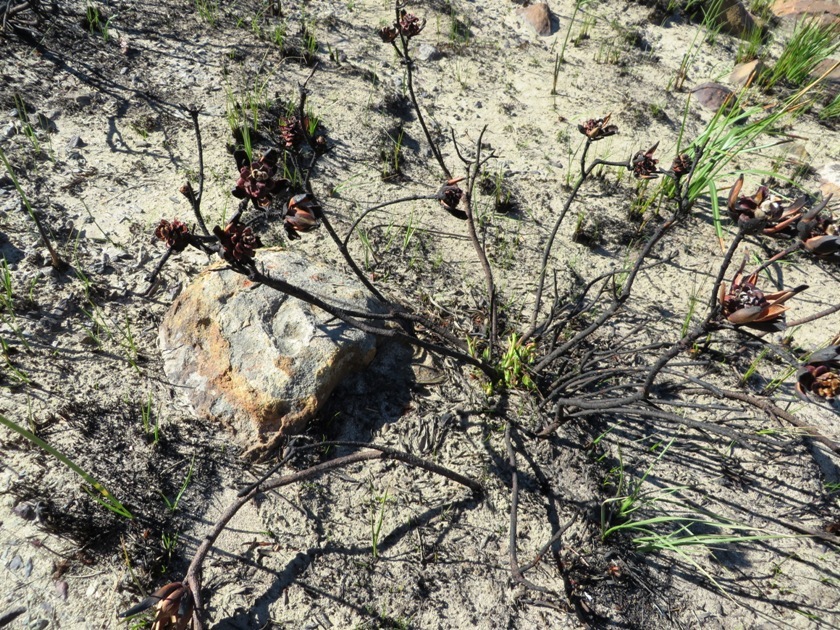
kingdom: Plantae
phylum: Tracheophyta
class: Magnoliopsida
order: Proteales
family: Proteaceae
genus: Leucadendron
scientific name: Leucadendron salignum
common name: Common sunshine conebush
